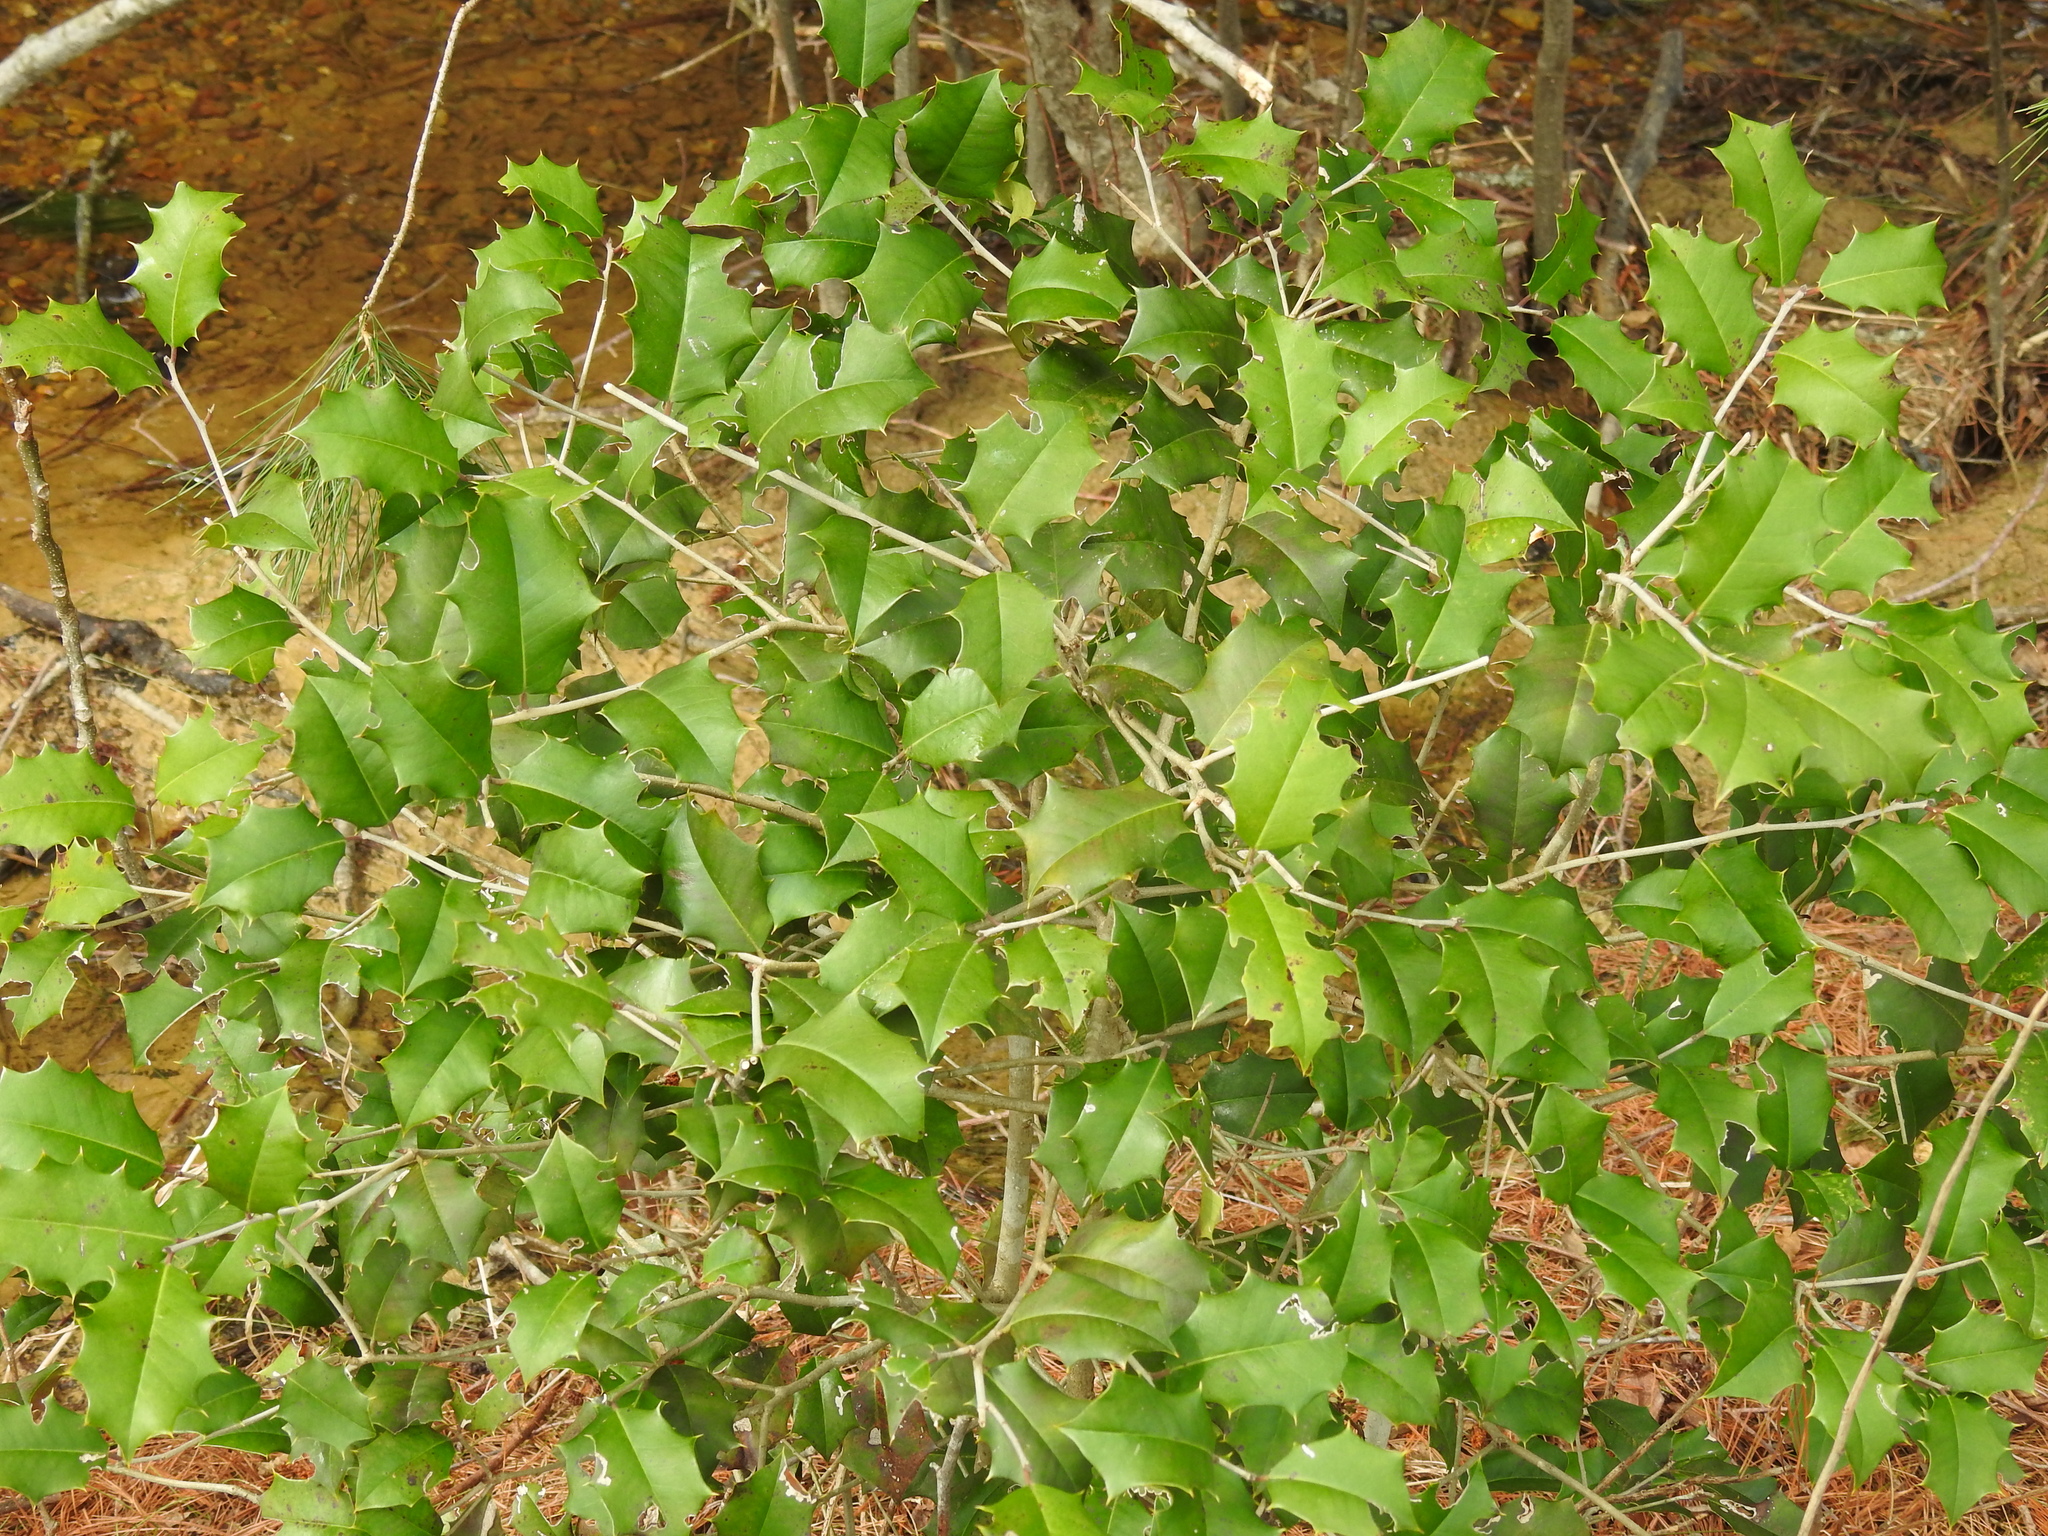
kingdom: Plantae
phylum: Tracheophyta
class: Magnoliopsida
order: Aquifoliales
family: Aquifoliaceae
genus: Ilex
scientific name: Ilex opaca
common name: American holly
